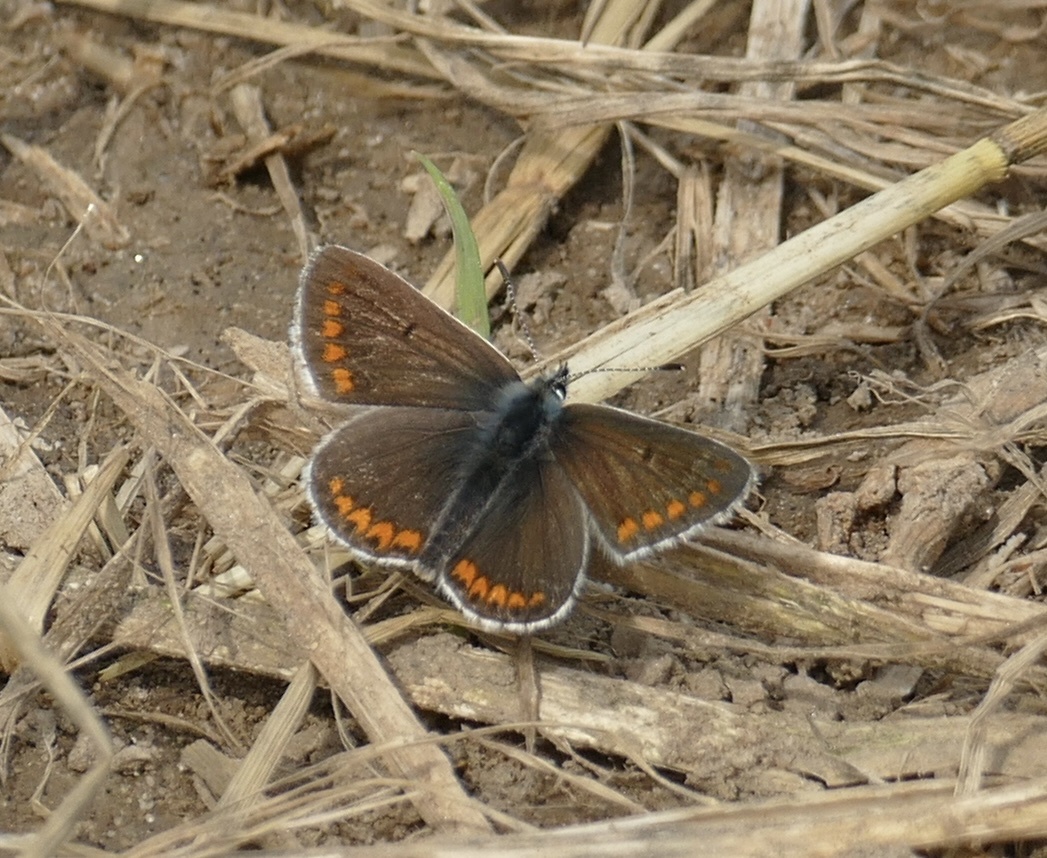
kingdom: Animalia
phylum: Arthropoda
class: Insecta
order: Lepidoptera
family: Lycaenidae
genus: Aricia
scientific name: Aricia agestis
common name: Brown argus
